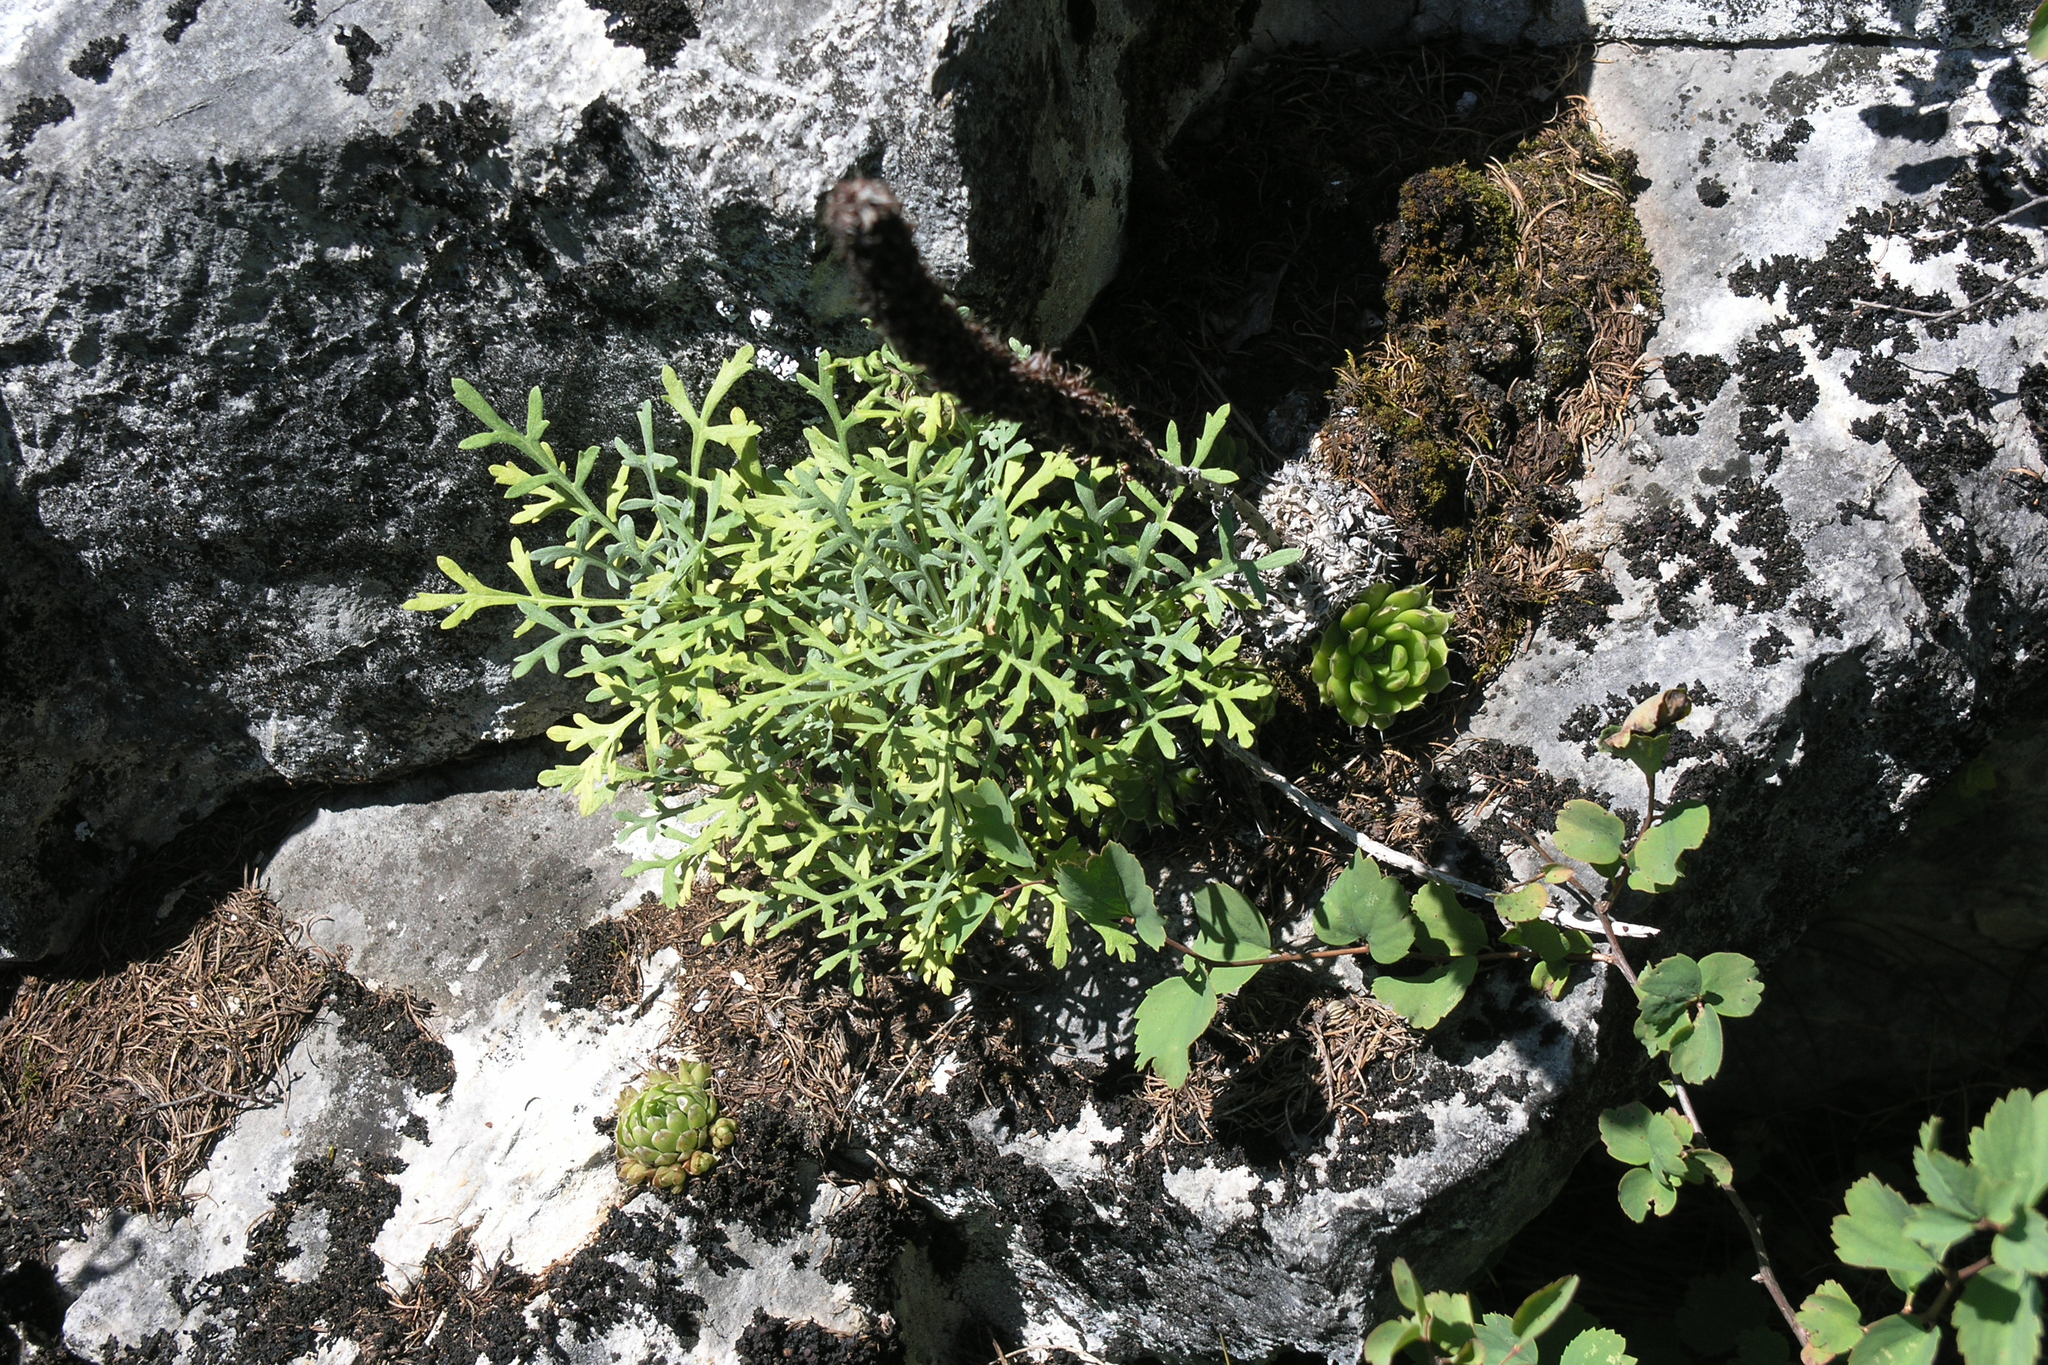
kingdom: Plantae
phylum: Tracheophyta
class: Magnoliopsida
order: Asterales
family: Asteraceae
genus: Chrysanthemum
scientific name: Chrysanthemum sinuatum
